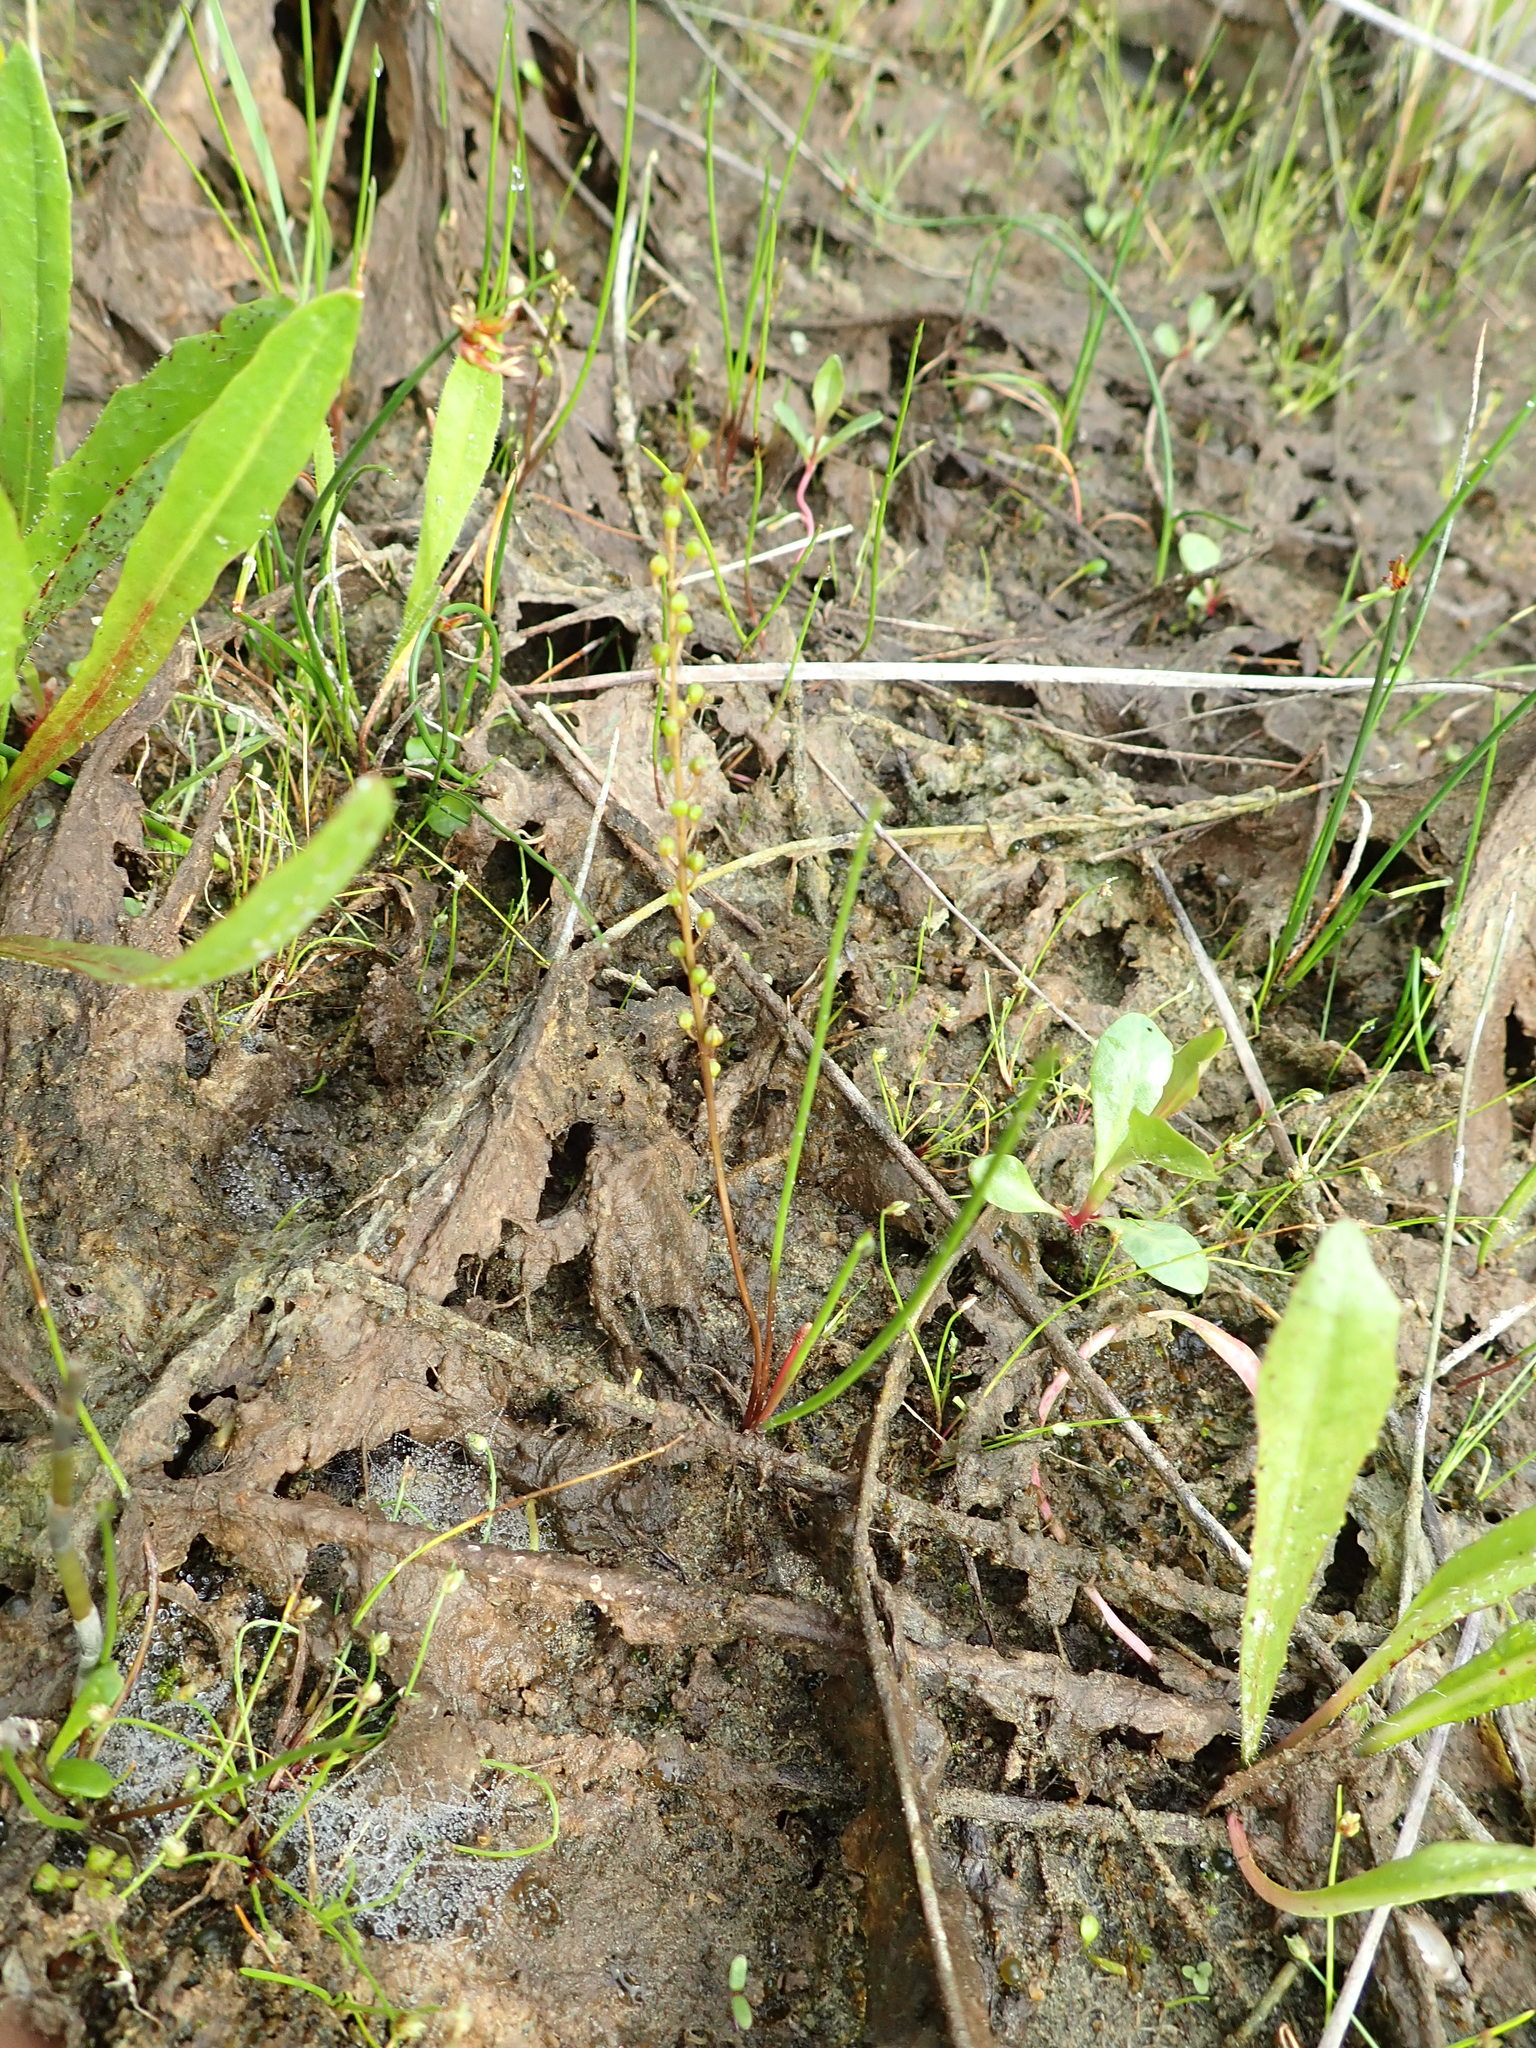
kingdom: Plantae
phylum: Tracheophyta
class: Liliopsida
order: Alismatales
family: Juncaginaceae
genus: Triglochin
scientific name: Triglochin striata
